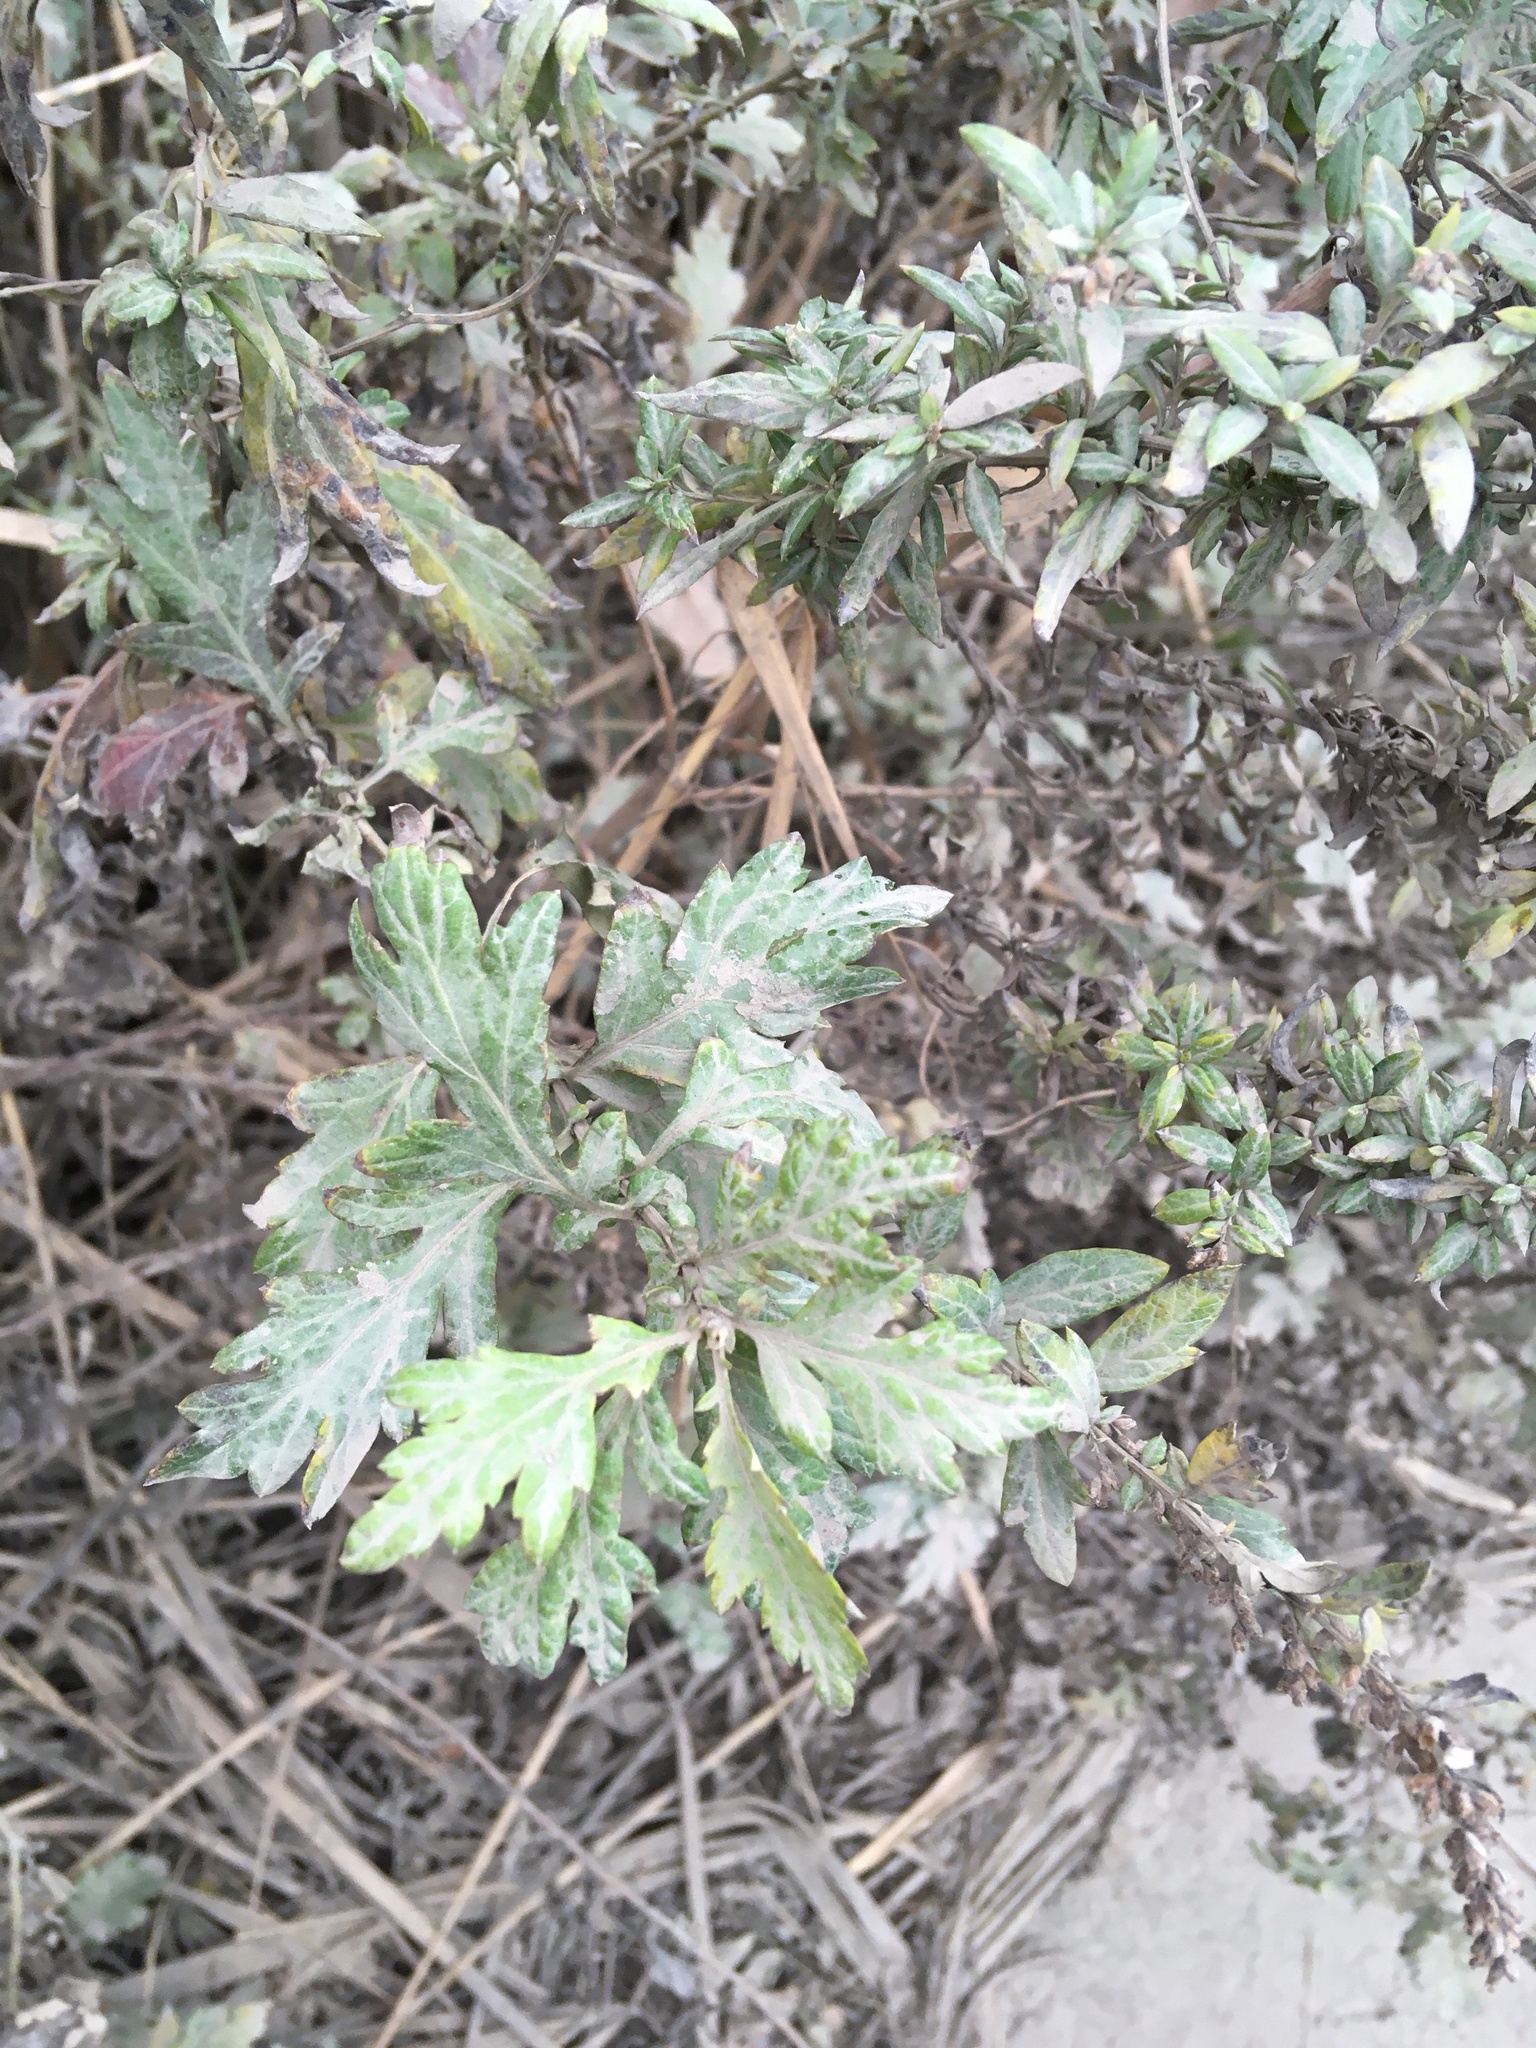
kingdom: Plantae
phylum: Tracheophyta
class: Magnoliopsida
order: Asterales
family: Asteraceae
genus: Artemisia
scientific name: Artemisia vulgaris
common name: Mugwort
